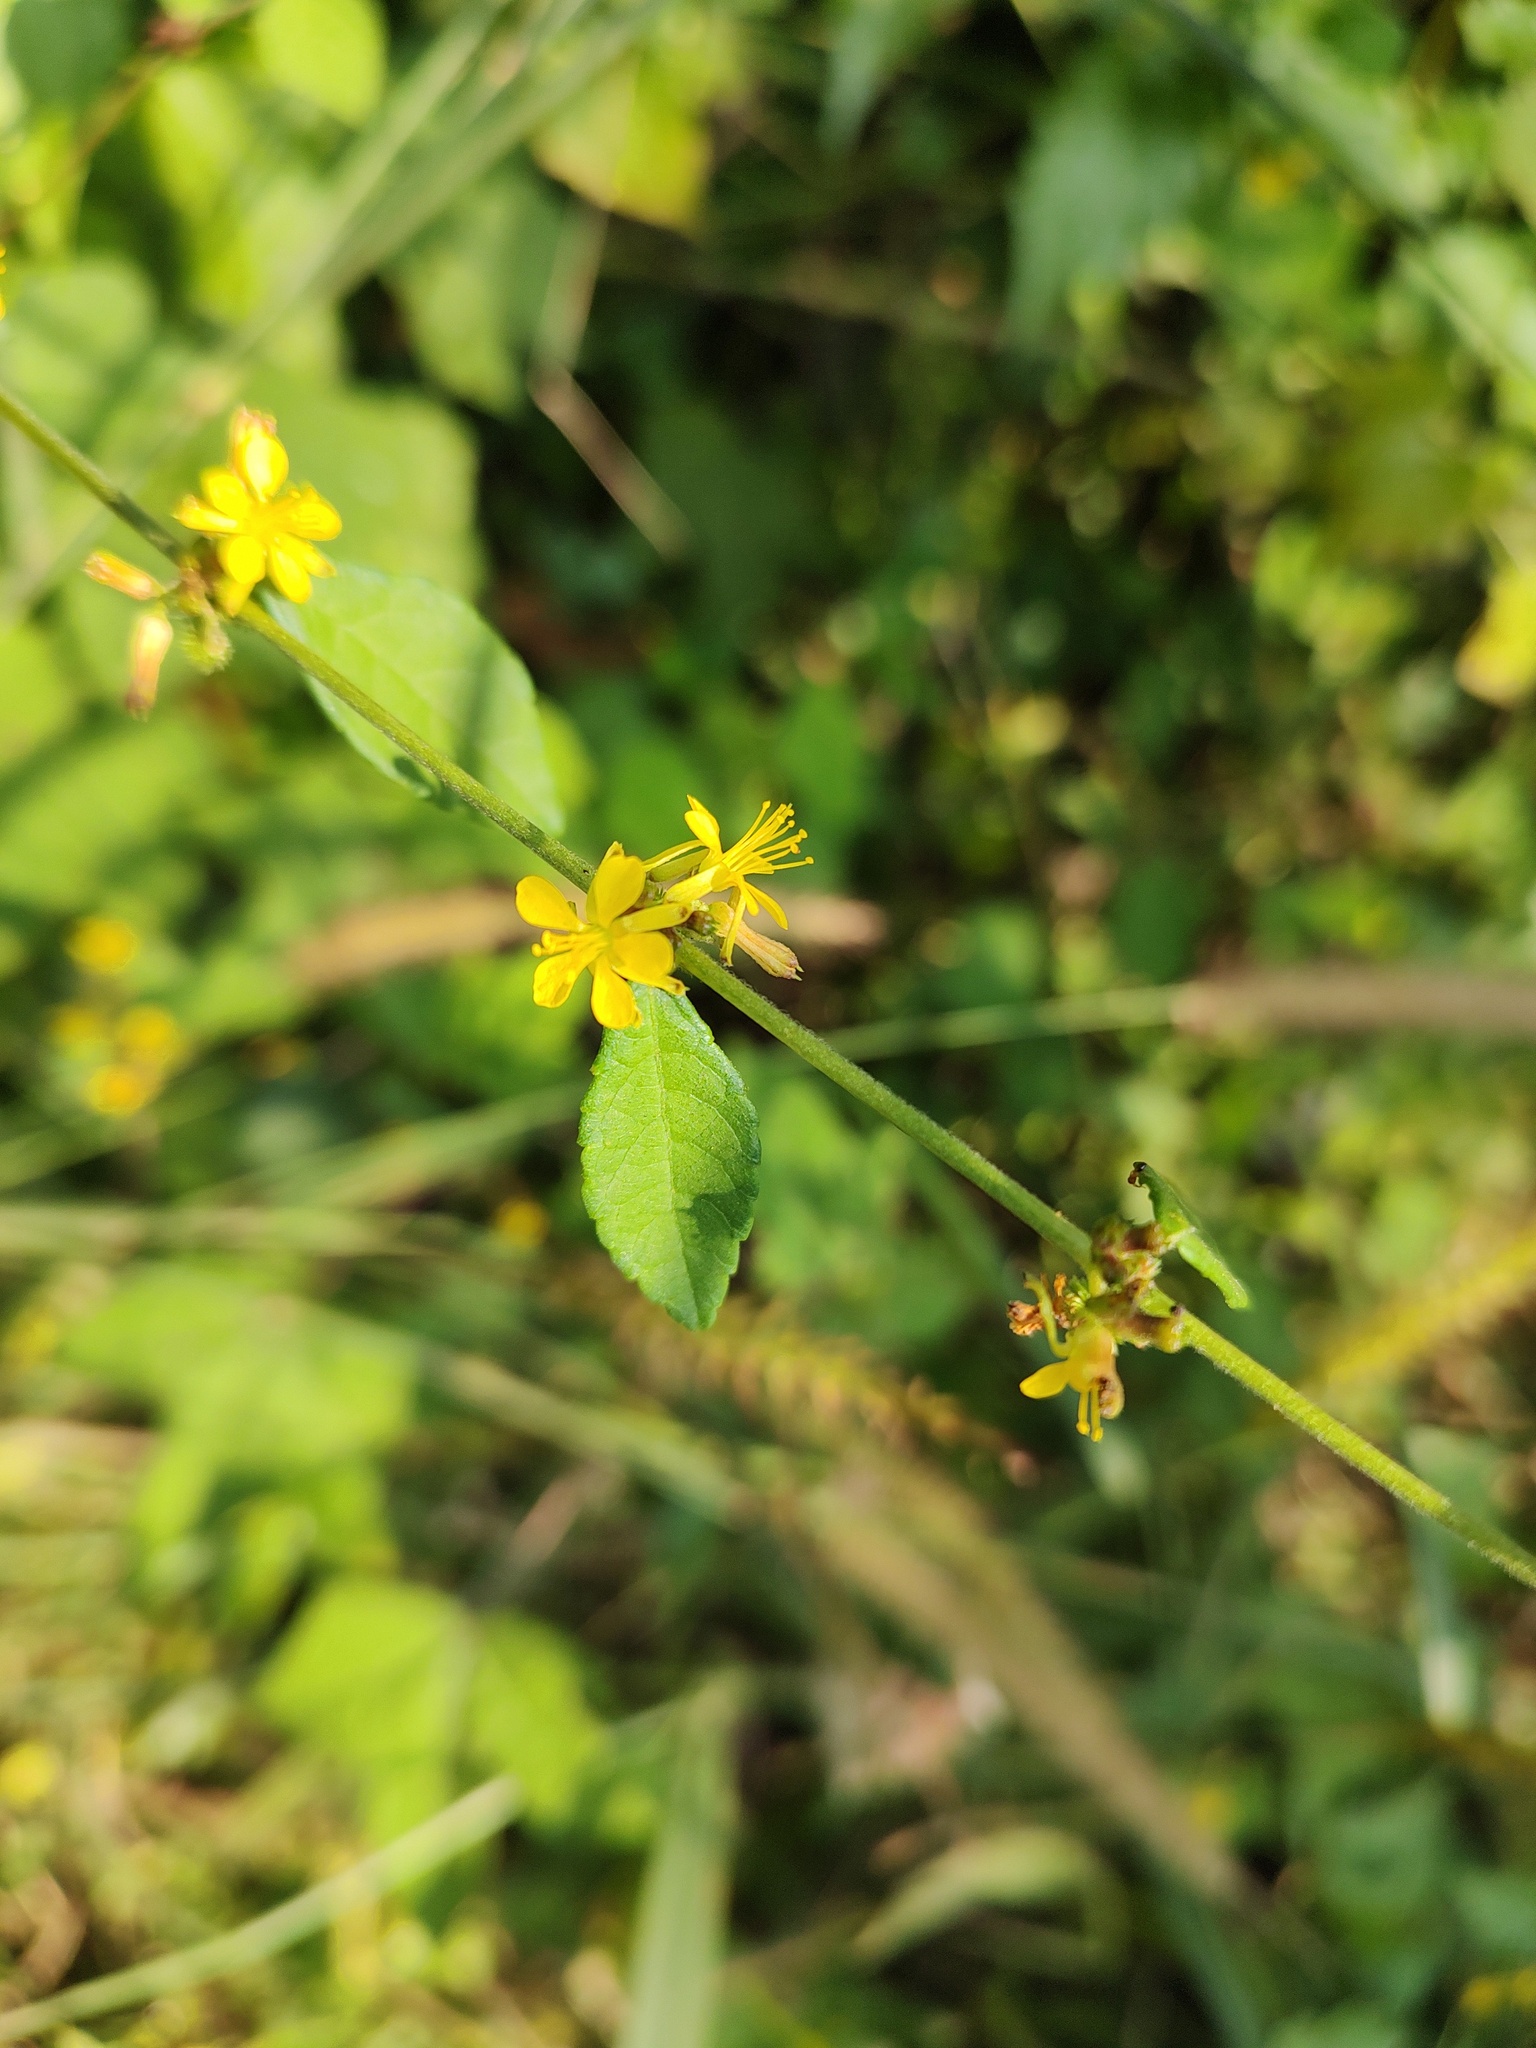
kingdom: Plantae
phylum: Tracheophyta
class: Magnoliopsida
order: Malvales
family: Malvaceae
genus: Triumfetta
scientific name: Triumfetta rhomboidea
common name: Diamond burbark
